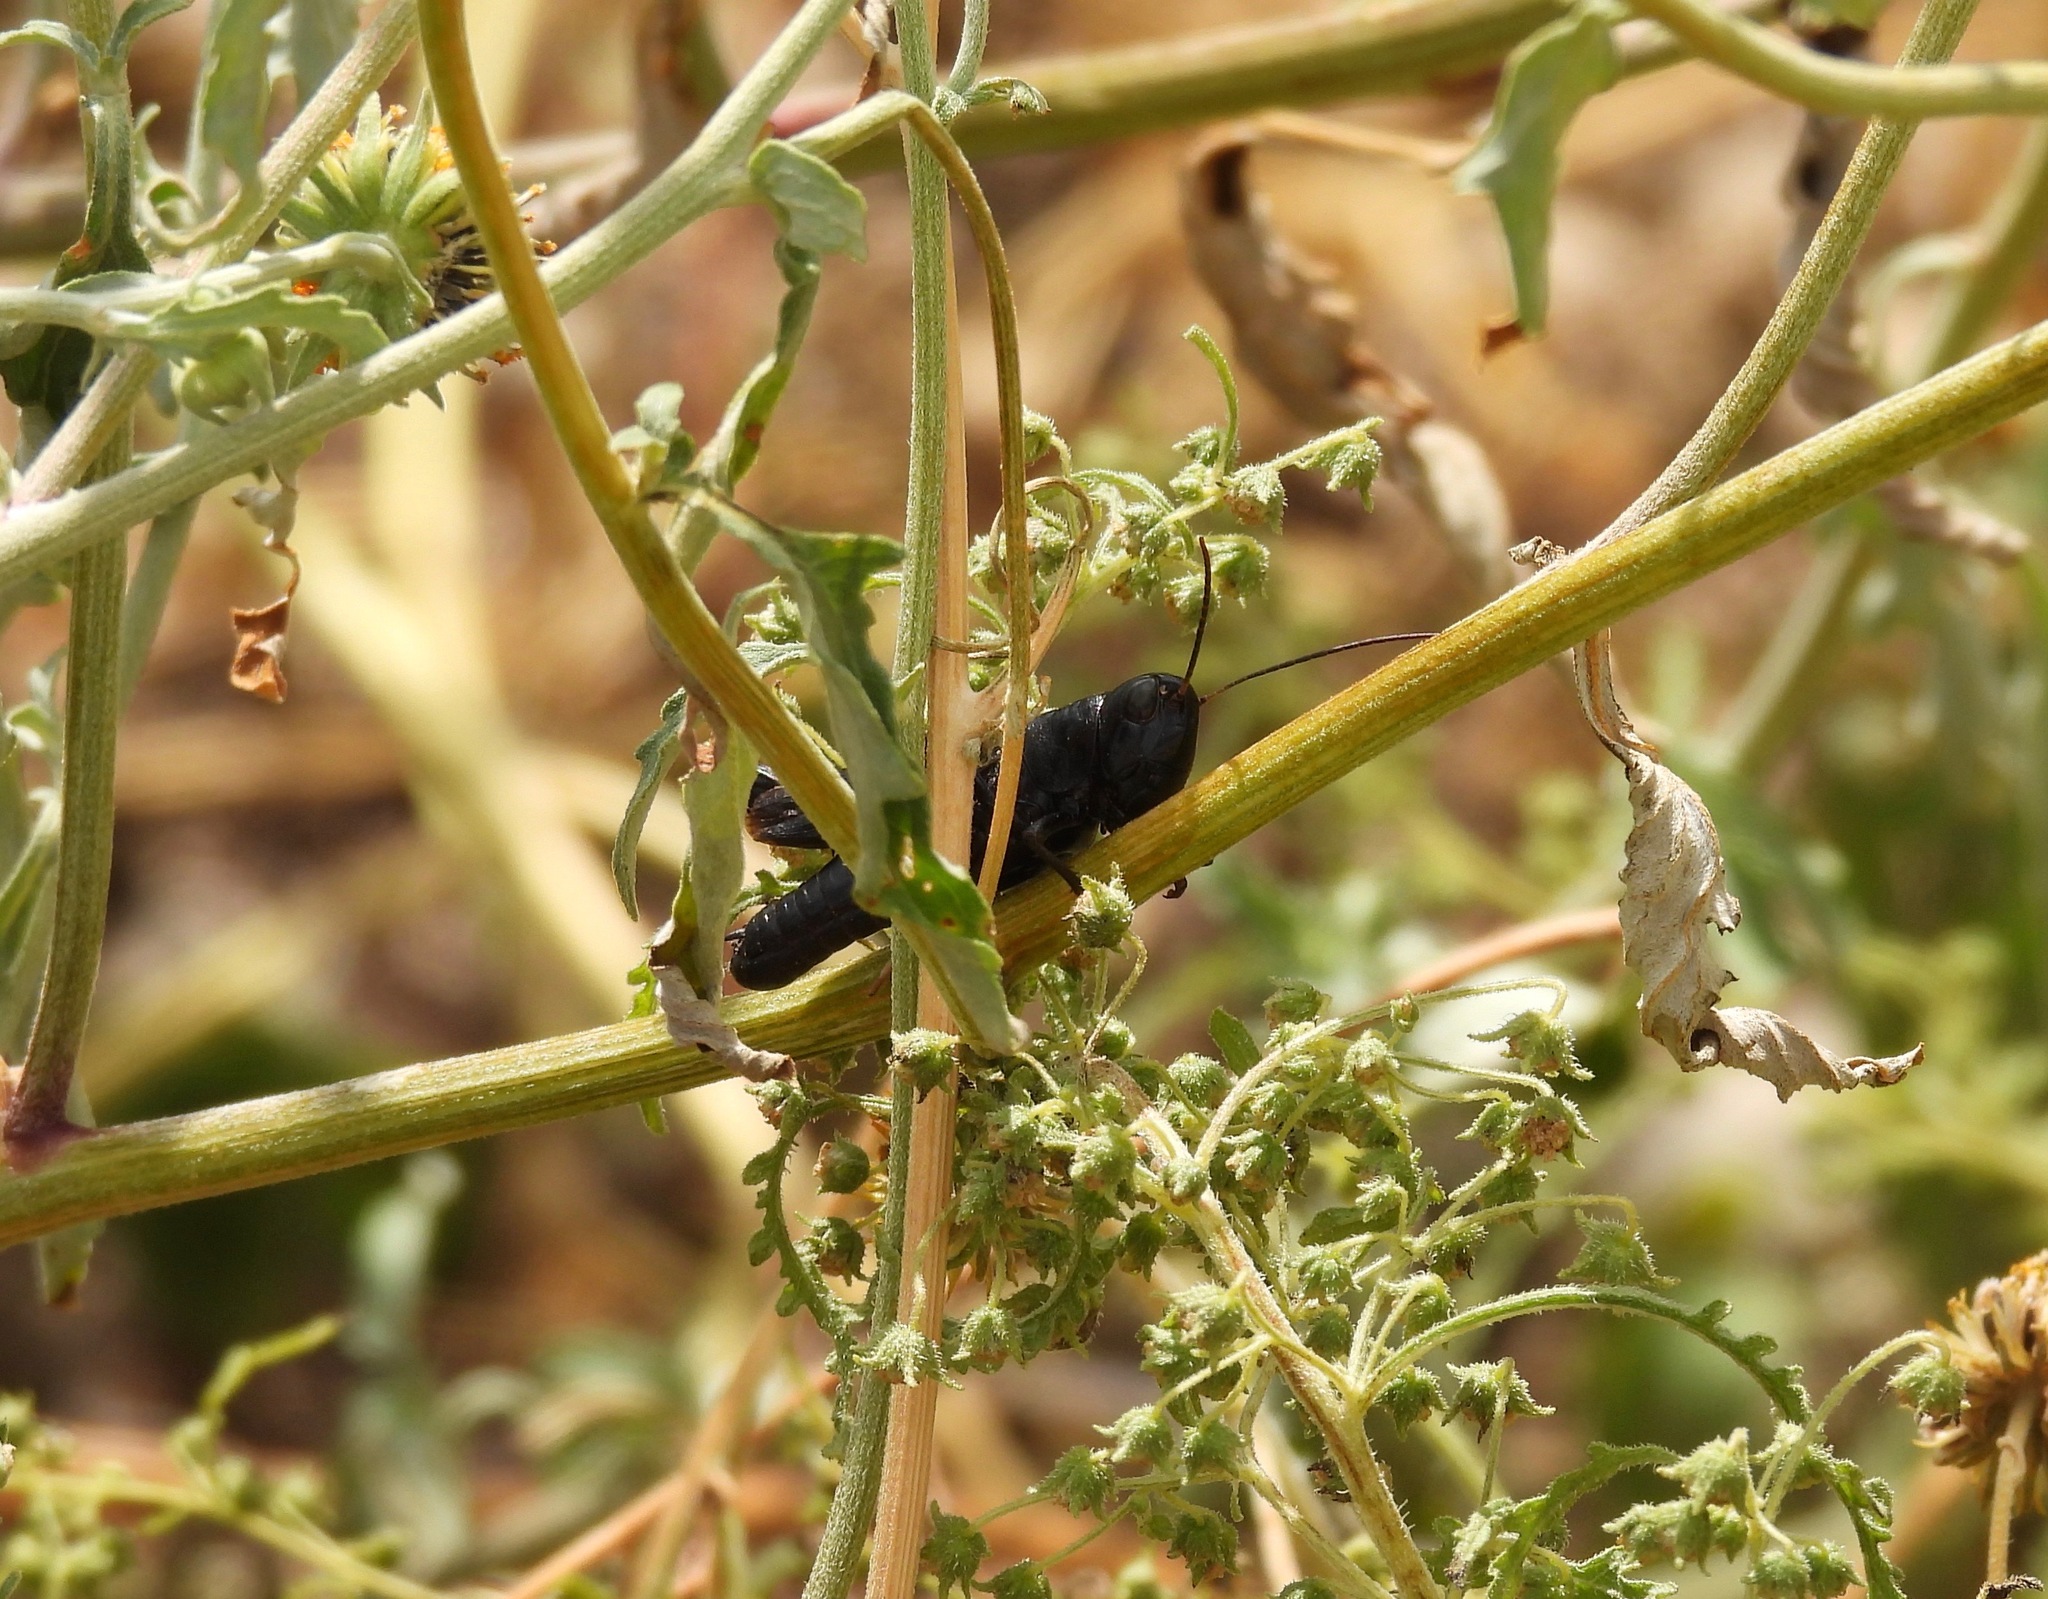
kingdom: Animalia
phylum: Arthropoda
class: Insecta
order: Orthoptera
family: Acrididae
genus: Boopedon
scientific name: Boopedon nubilum
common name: Ebony grasshopper
